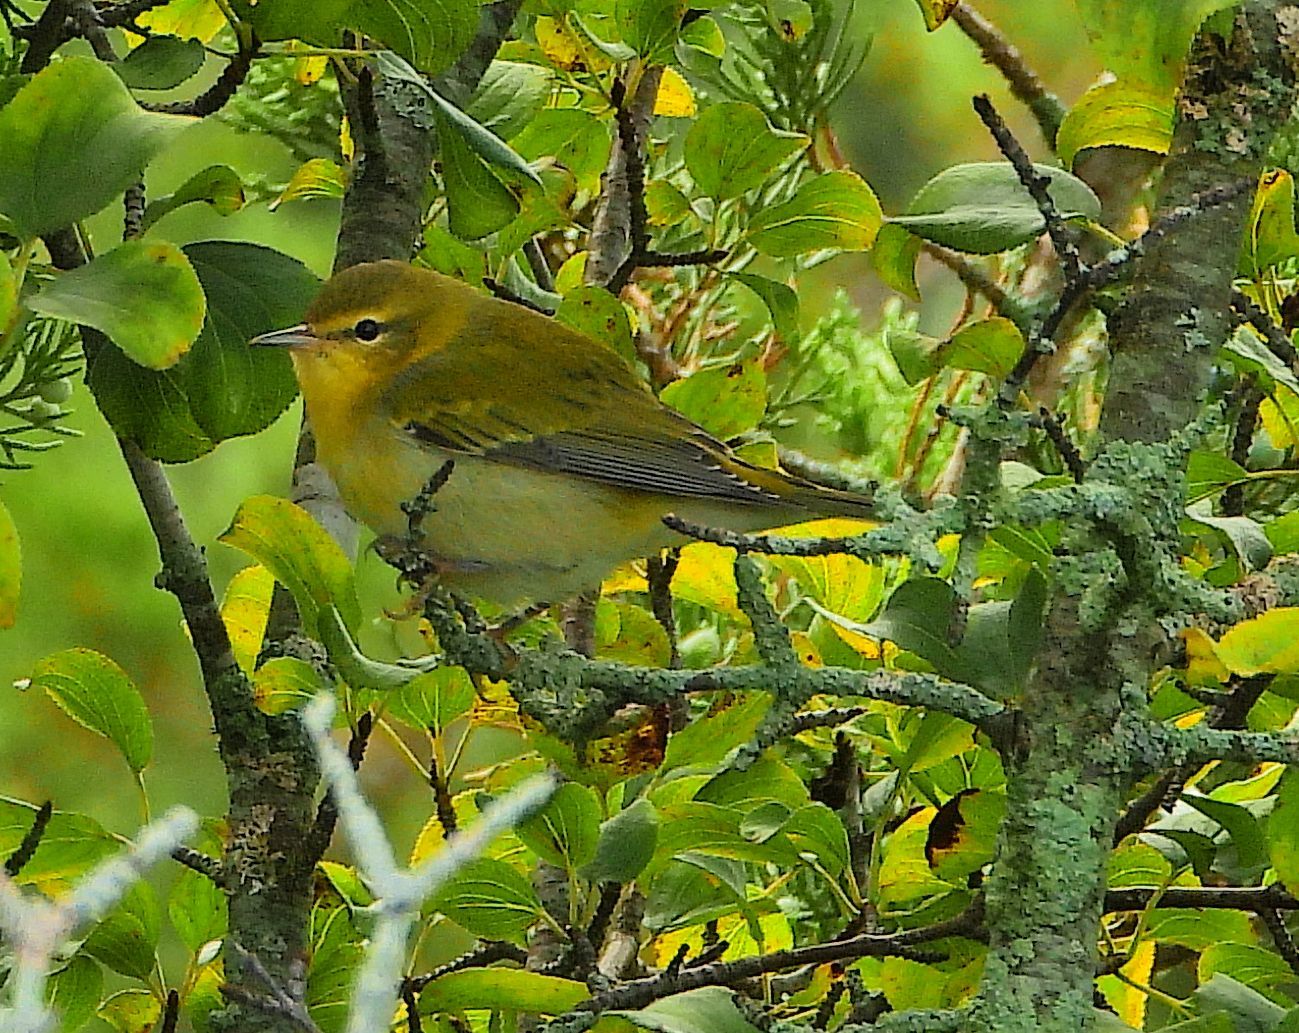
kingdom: Animalia
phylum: Chordata
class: Aves
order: Passeriformes
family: Parulidae
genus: Leiothlypis
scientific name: Leiothlypis peregrina
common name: Tennessee warbler
